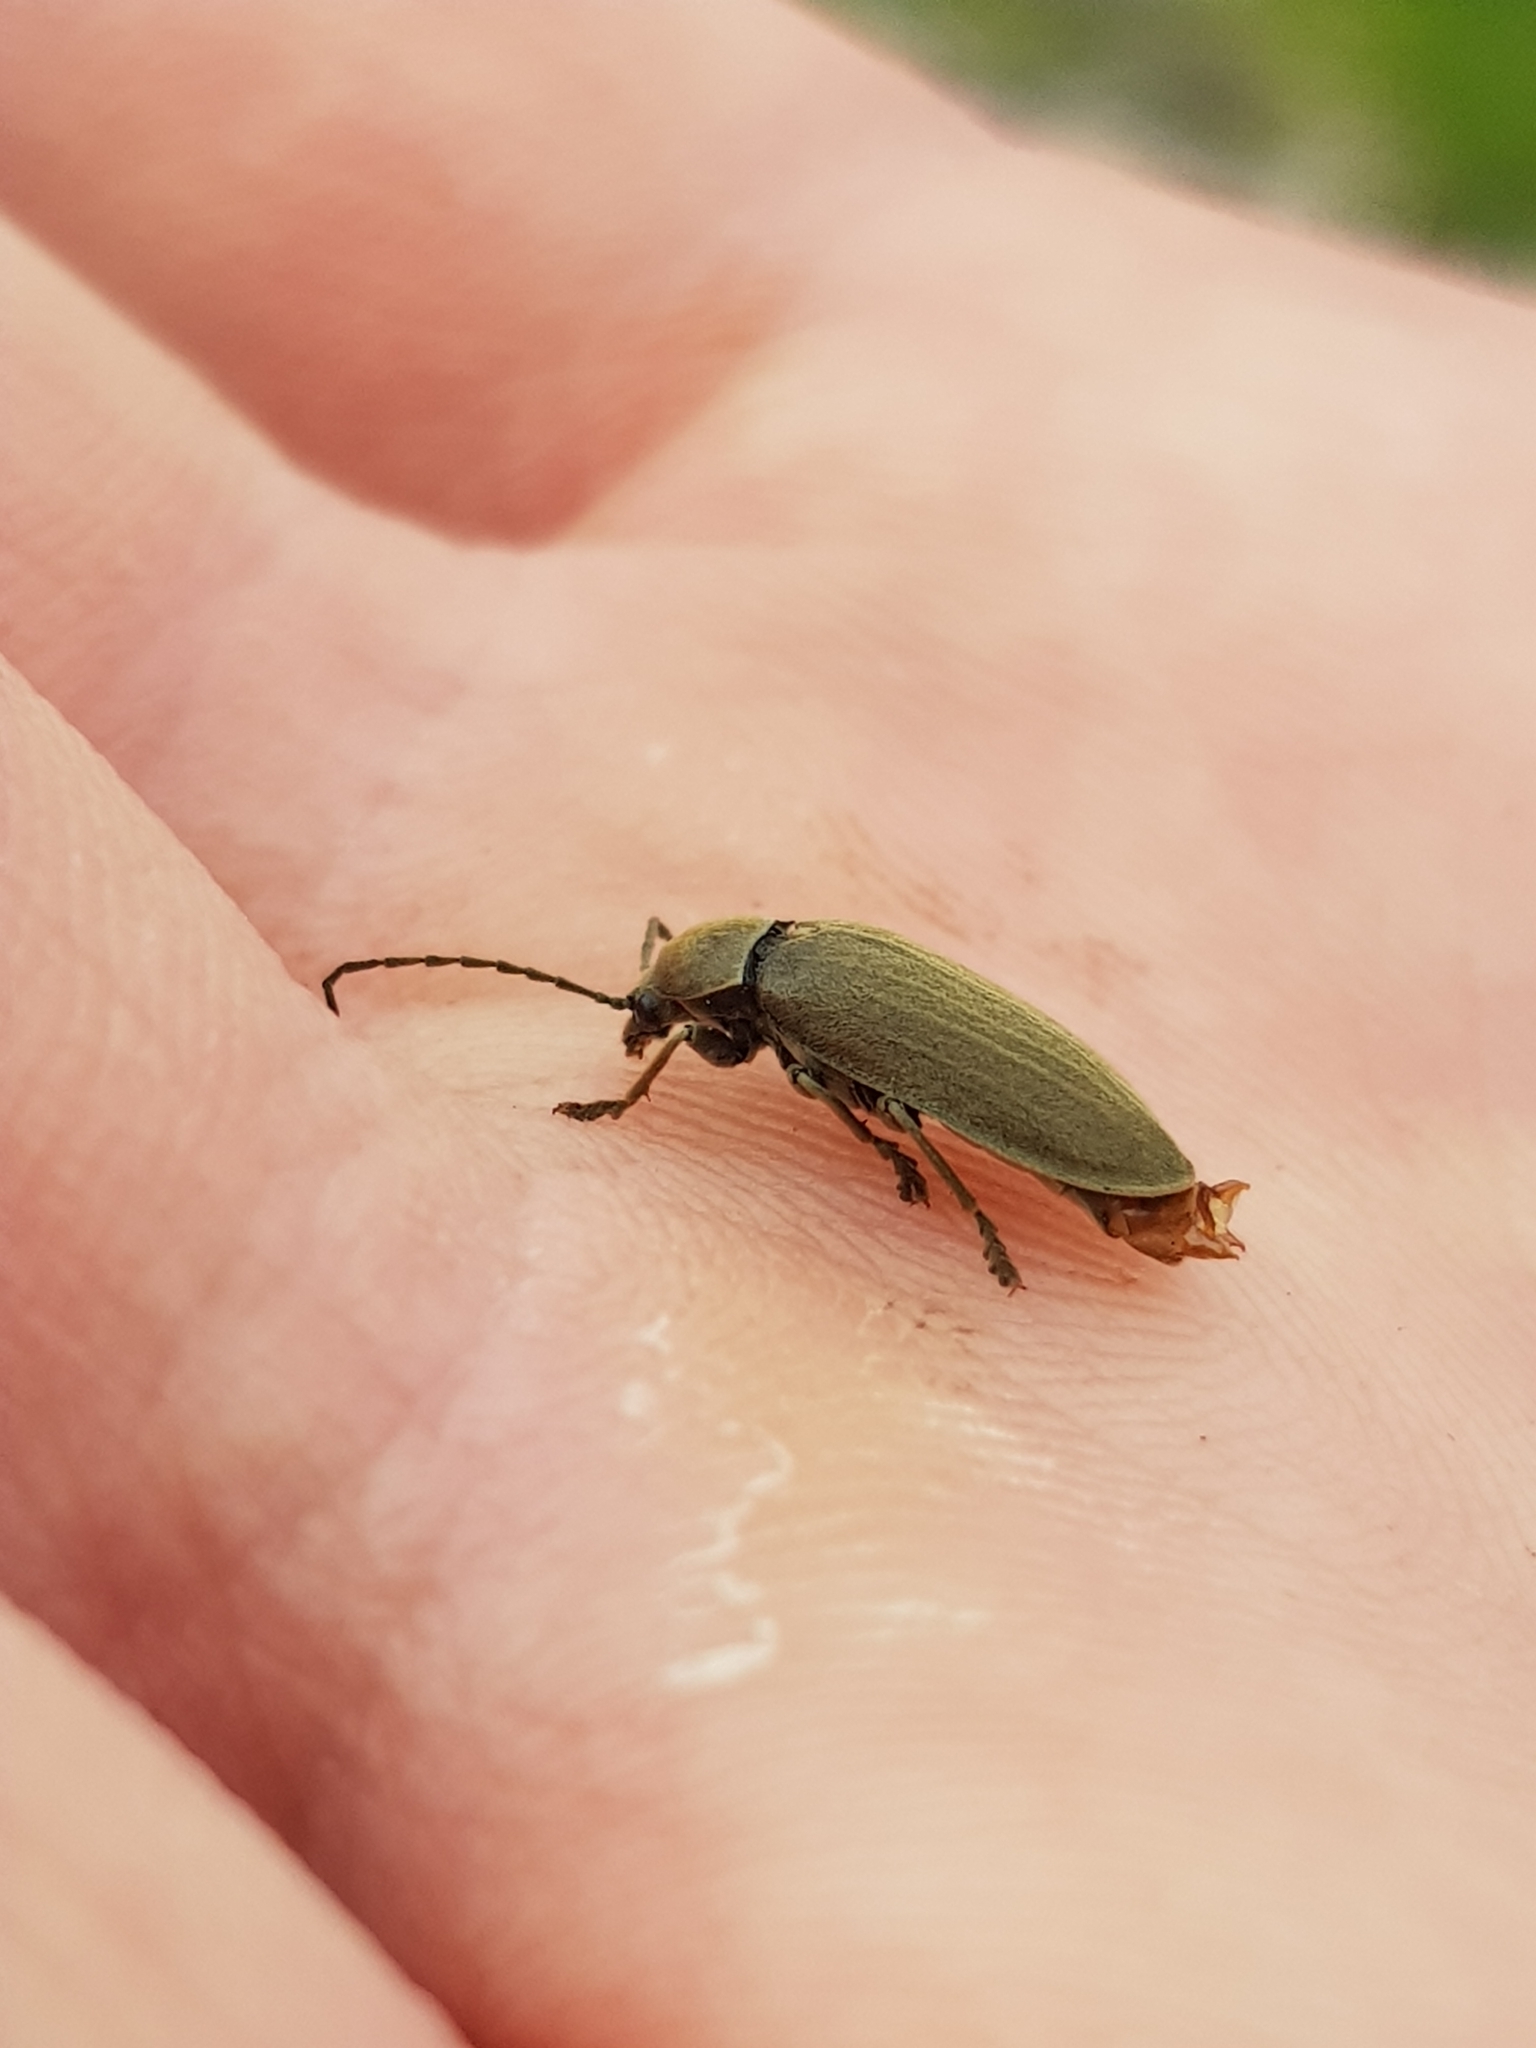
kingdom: Animalia
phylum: Arthropoda
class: Insecta
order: Coleoptera
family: Dascillidae
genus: Dascillus
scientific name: Dascillus cervinus
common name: Orchid beetle
